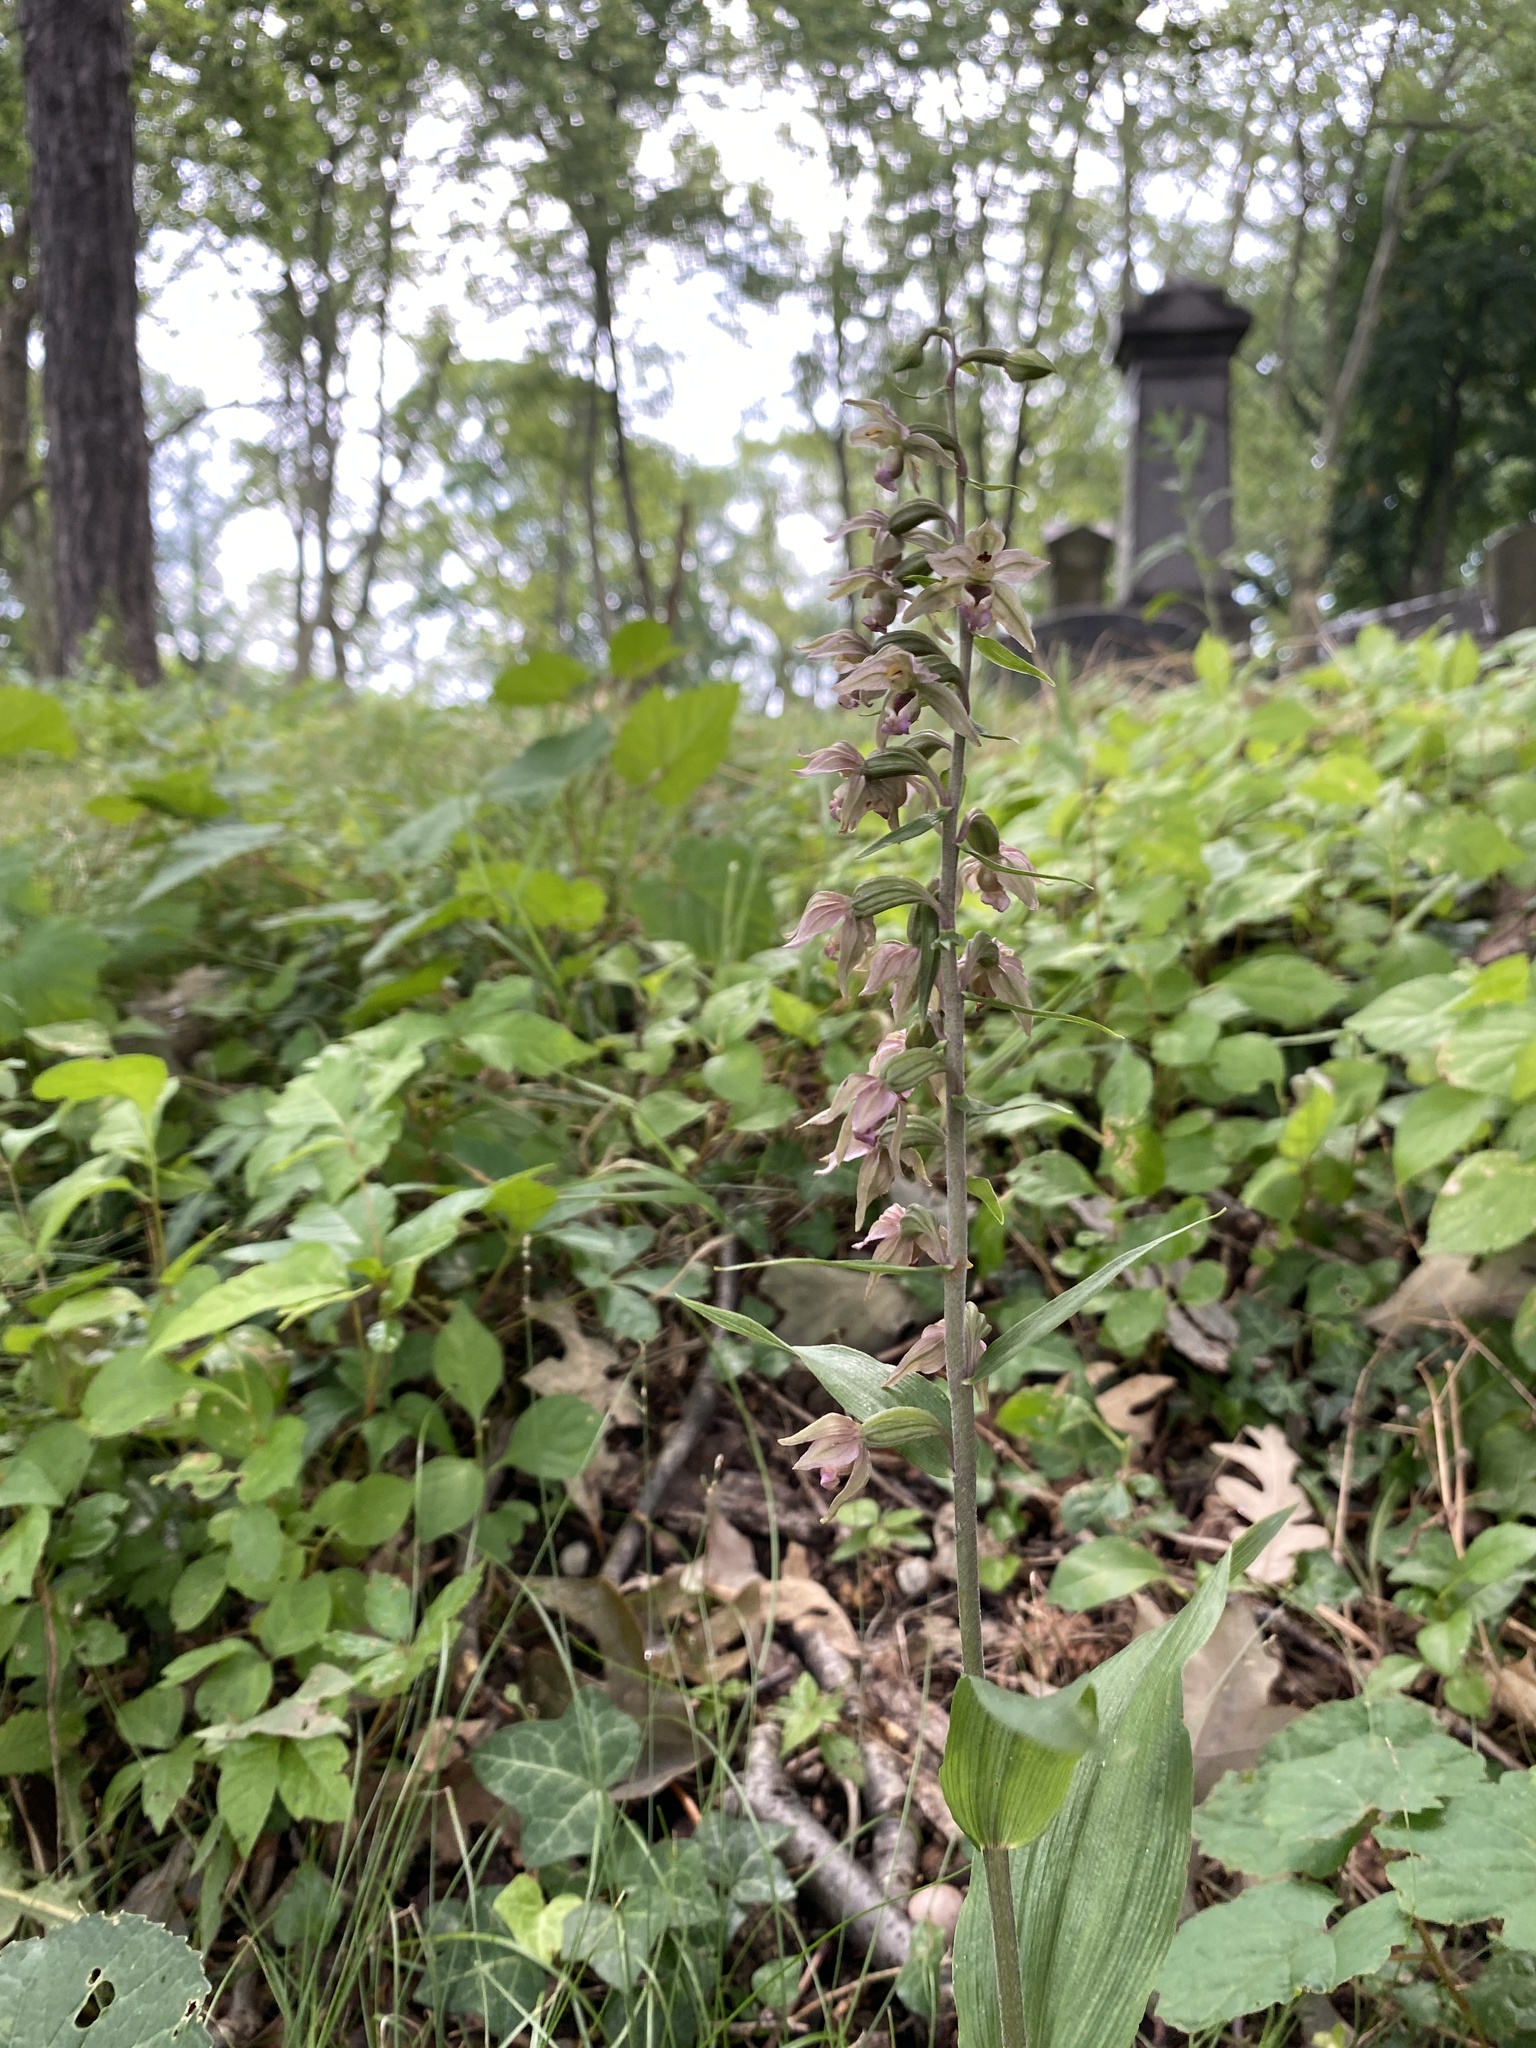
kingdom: Plantae
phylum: Tracheophyta
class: Liliopsida
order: Asparagales
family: Orchidaceae
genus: Epipactis
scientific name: Epipactis helleborine
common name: Broad-leaved helleborine
